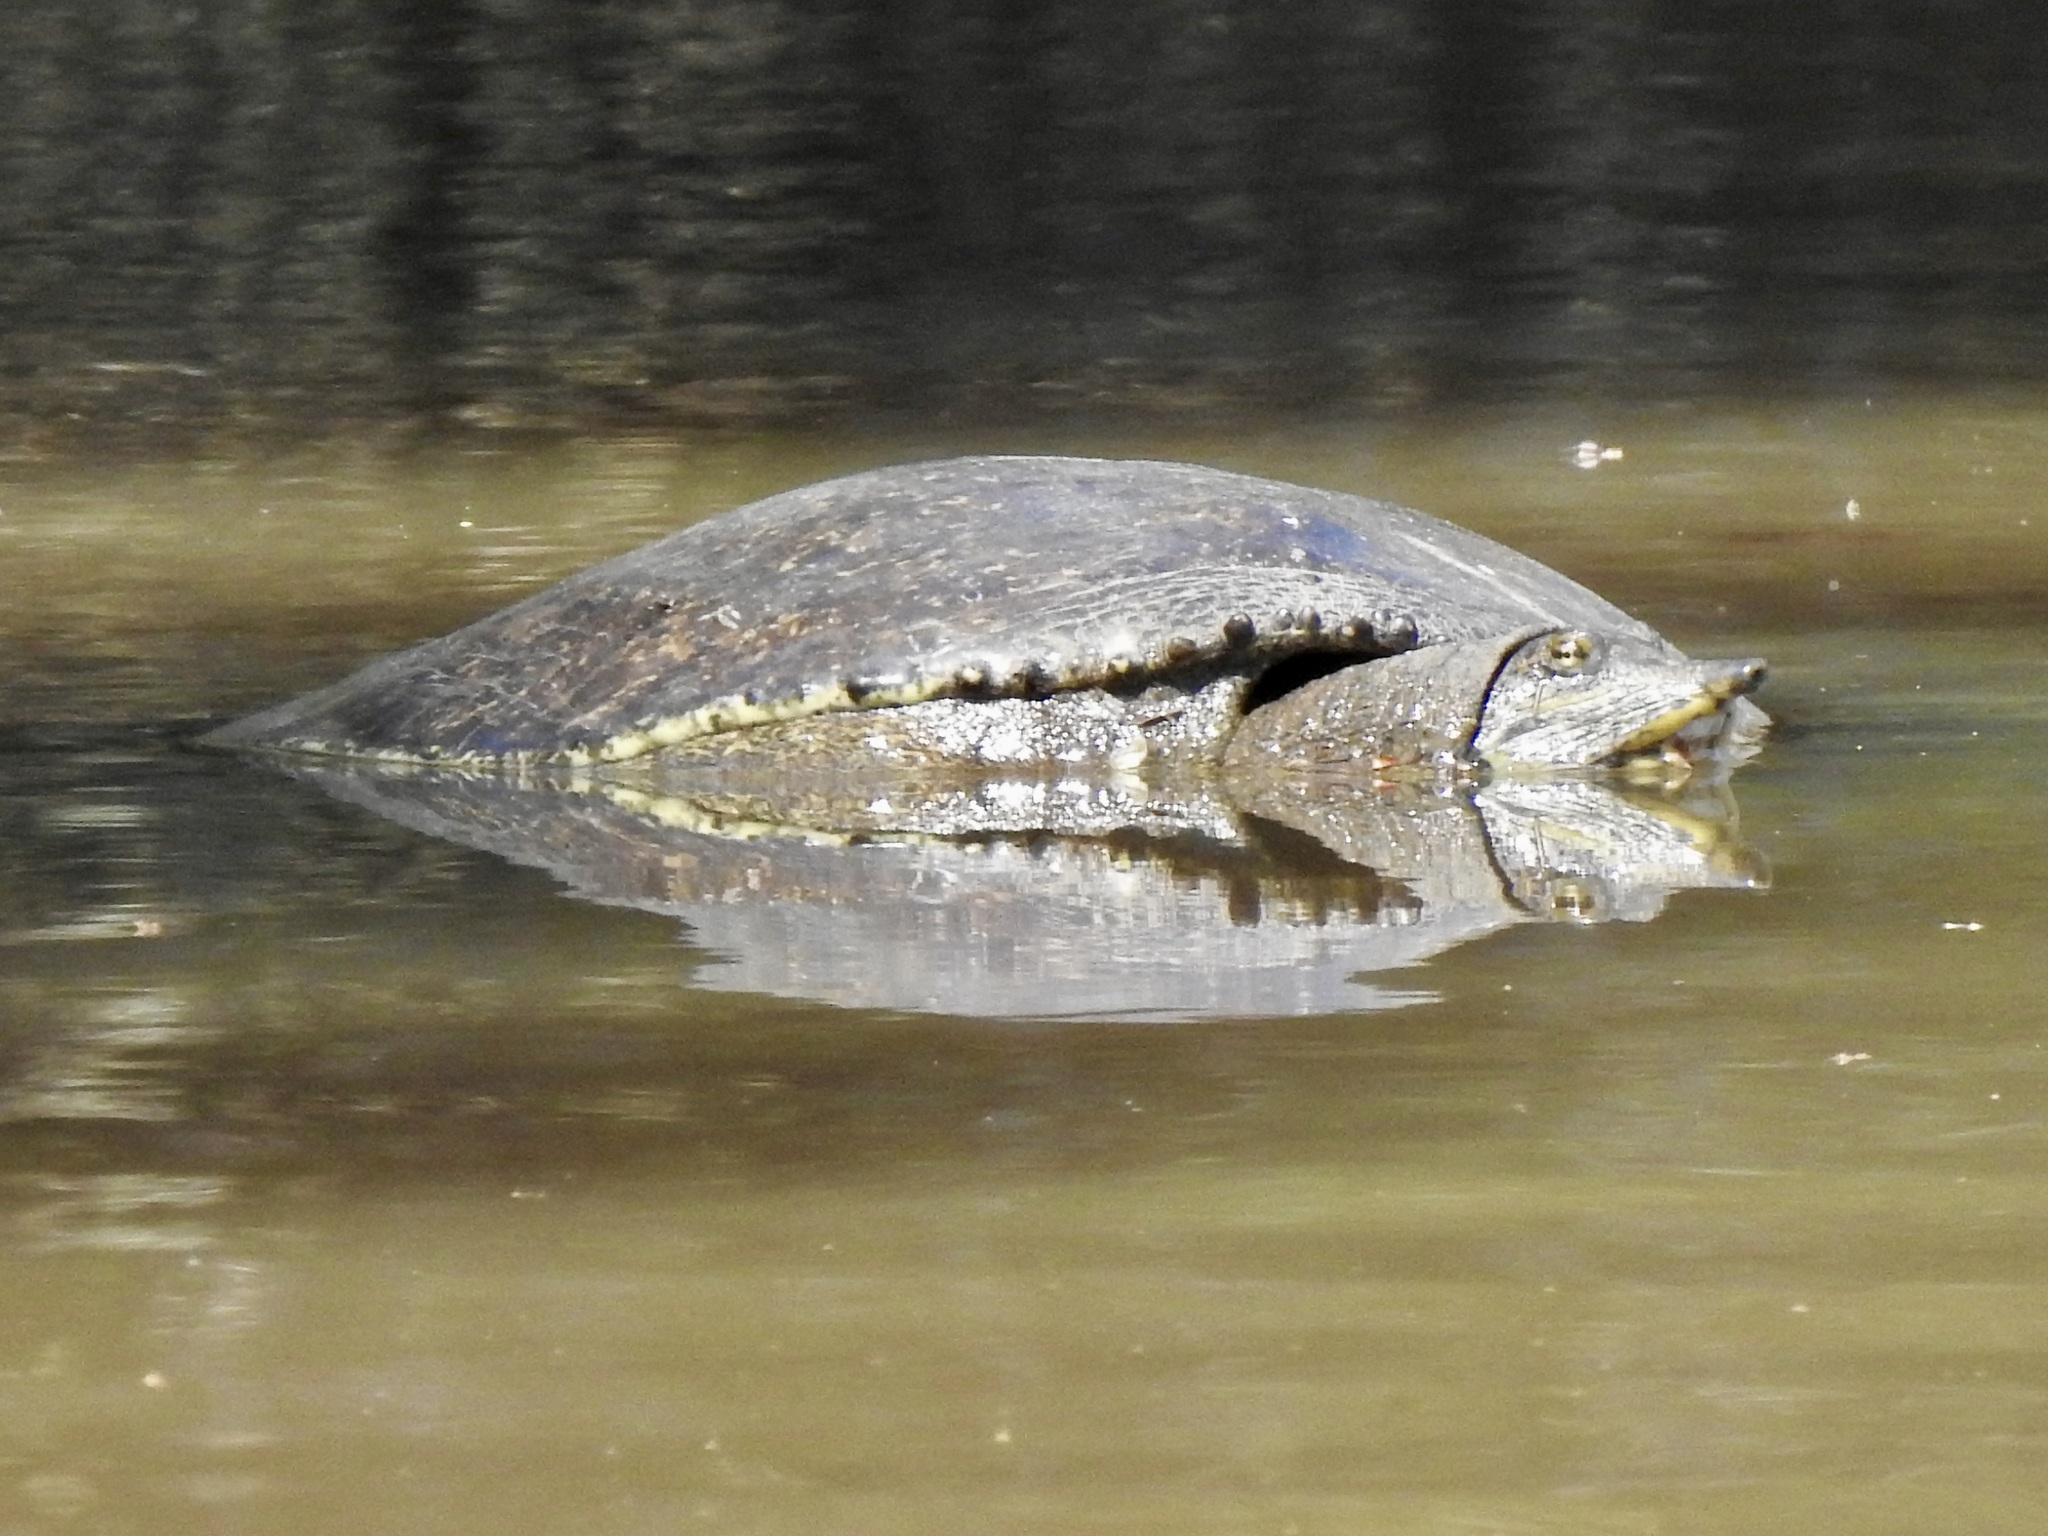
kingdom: Animalia
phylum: Chordata
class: Testudines
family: Trionychidae
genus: Apalone
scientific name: Apalone spinifera
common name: Spiny softshell turtle
